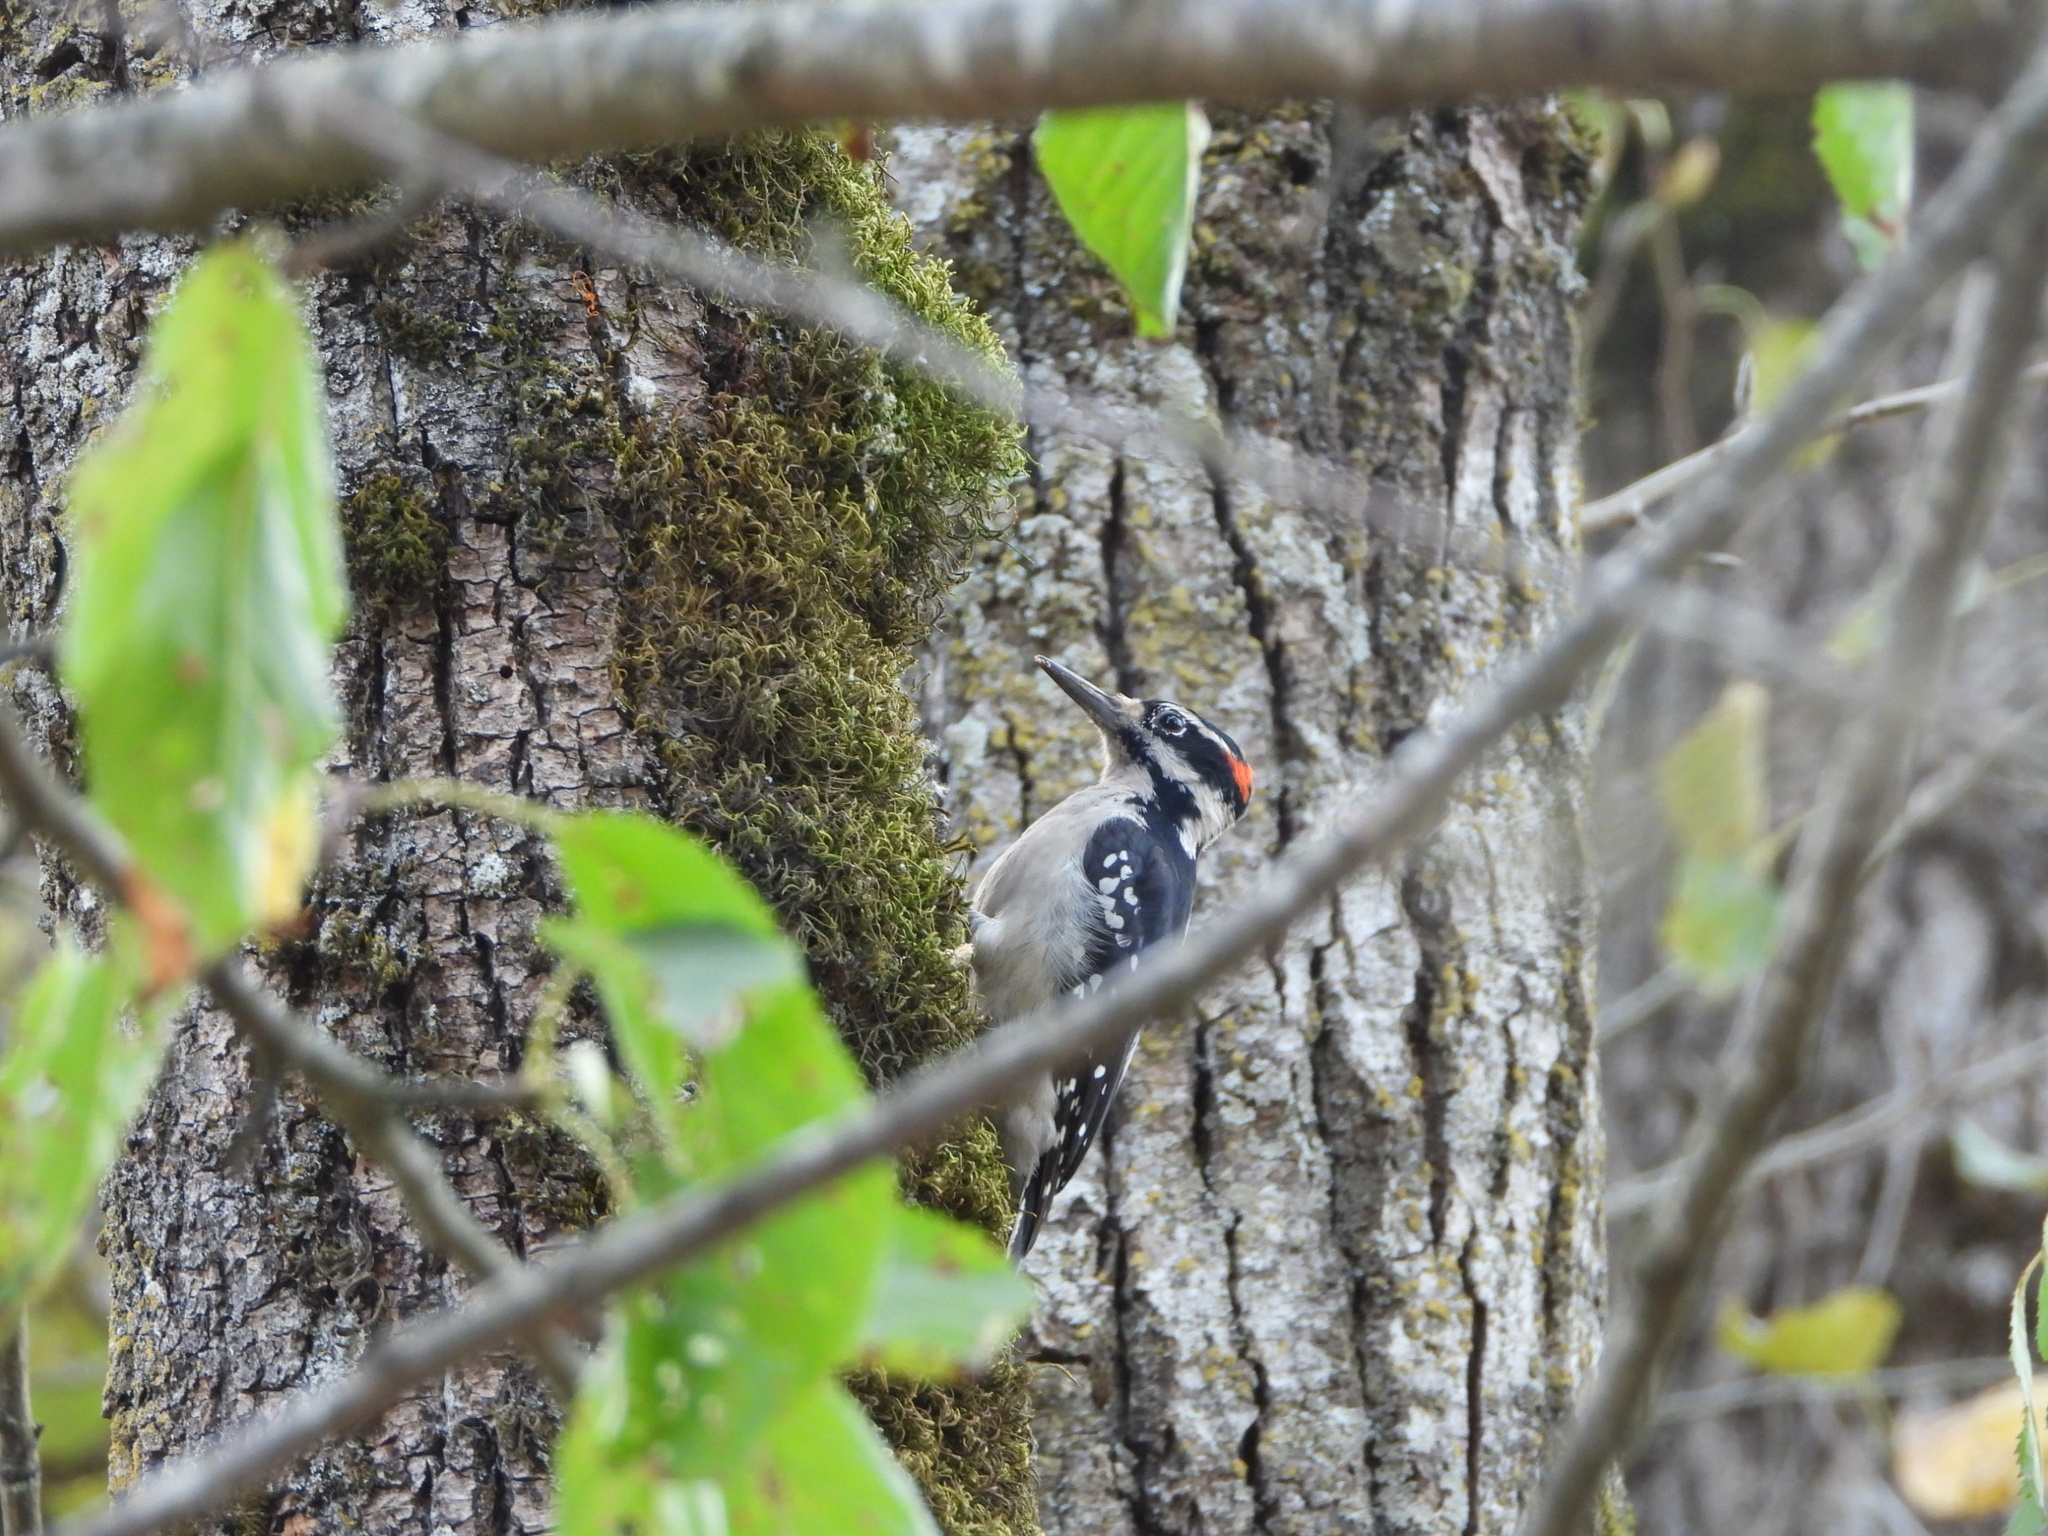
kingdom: Animalia
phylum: Chordata
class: Aves
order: Piciformes
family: Picidae
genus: Leuconotopicus
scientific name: Leuconotopicus villosus
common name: Hairy woodpecker
